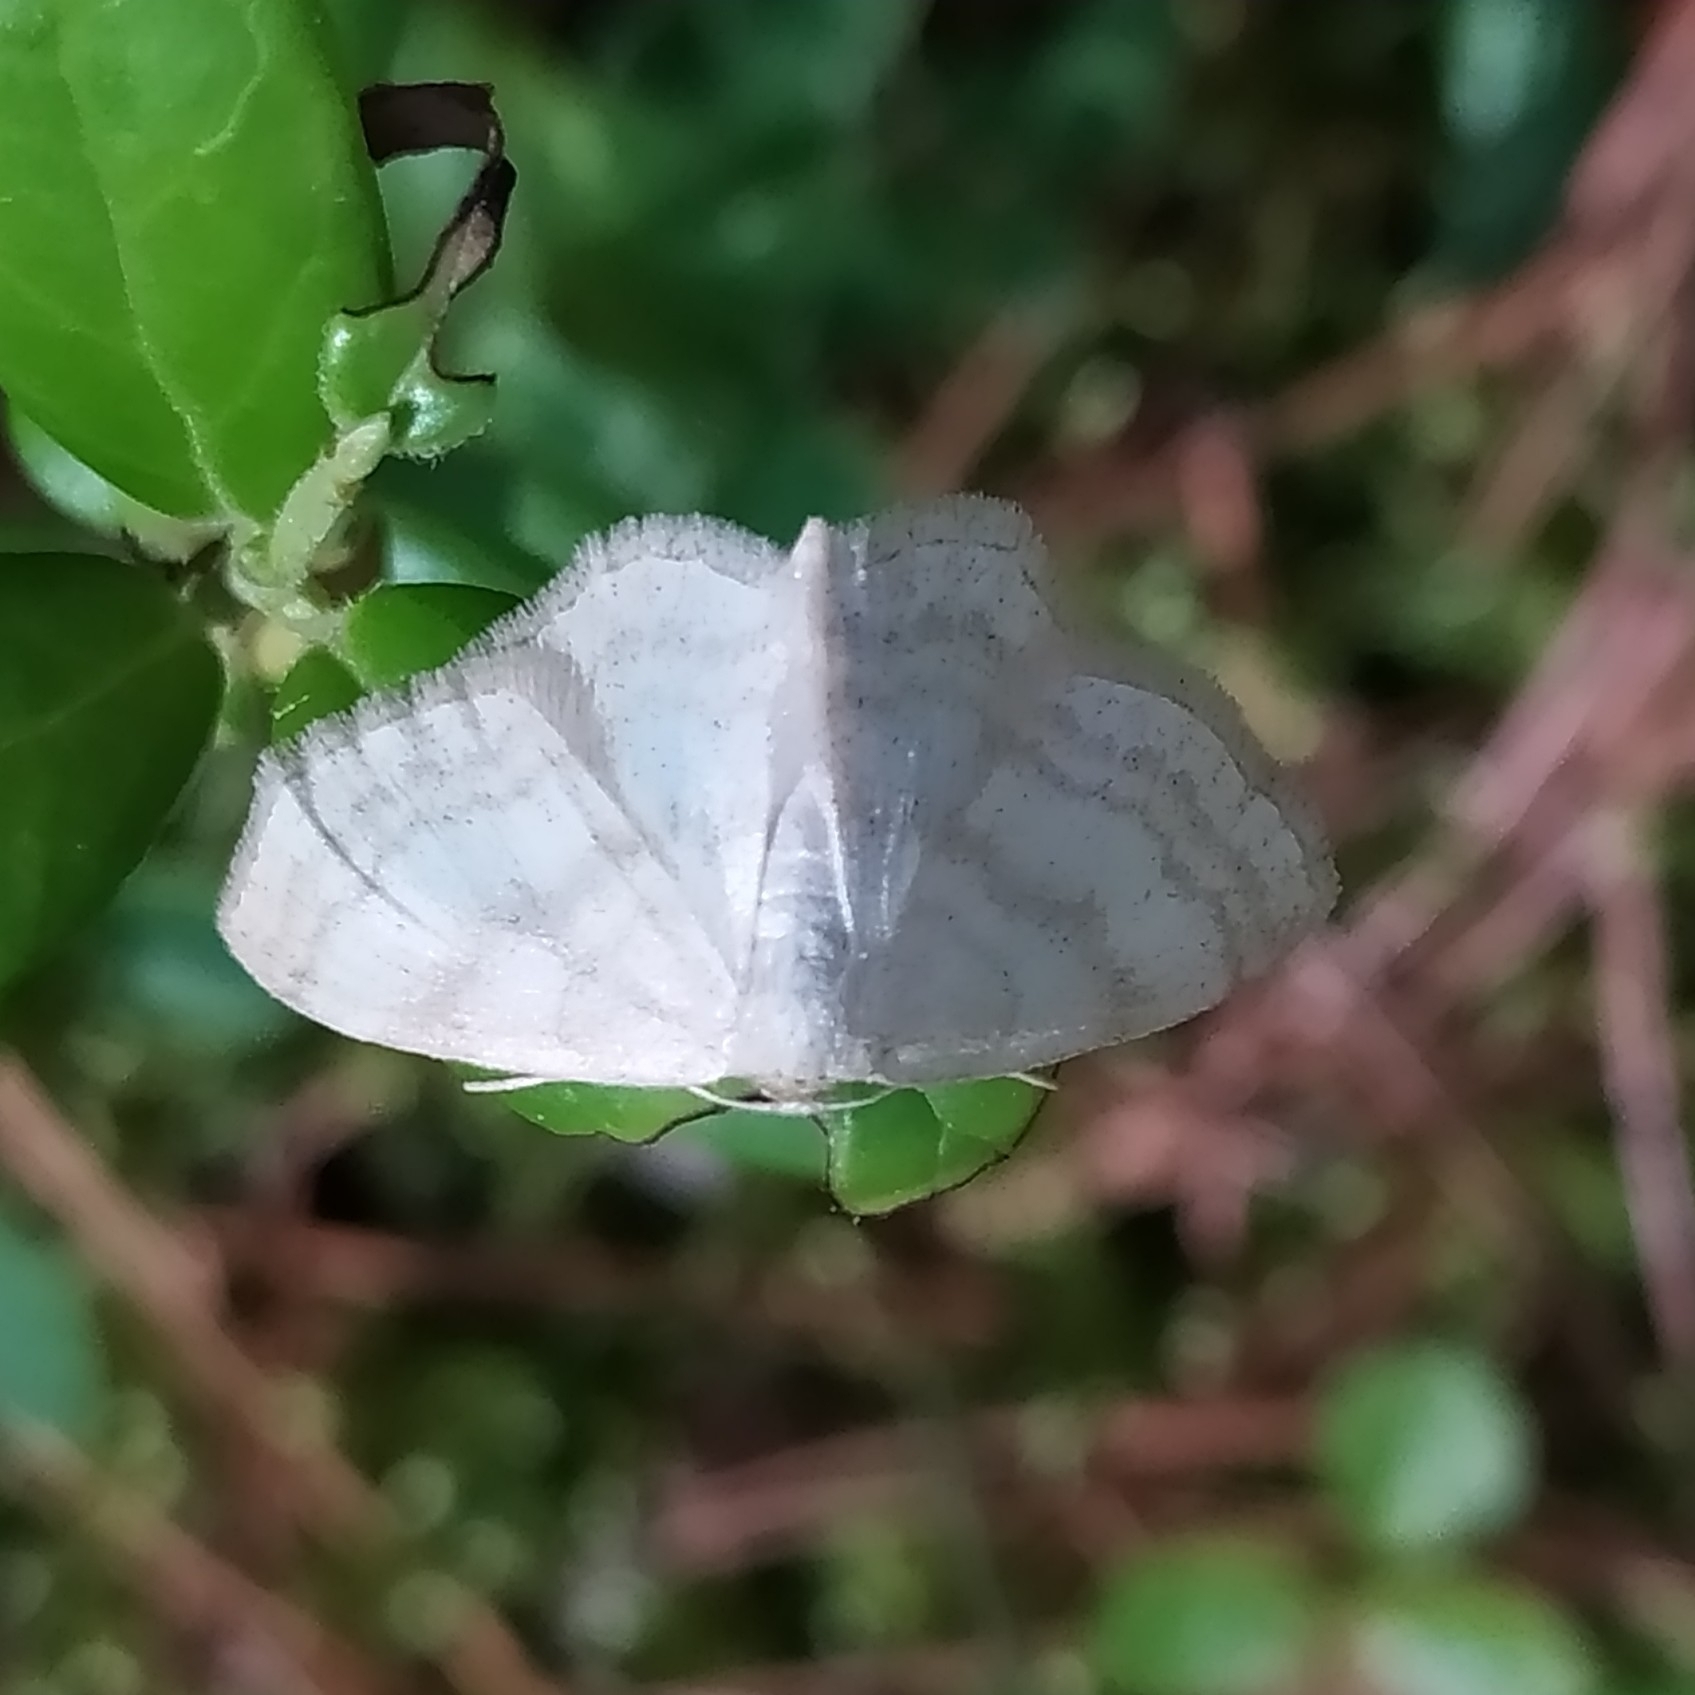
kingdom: Animalia
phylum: Arthropoda
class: Insecta
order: Lepidoptera
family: Geometridae
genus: Scopula
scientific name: Scopula ternata
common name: Smoky wave
